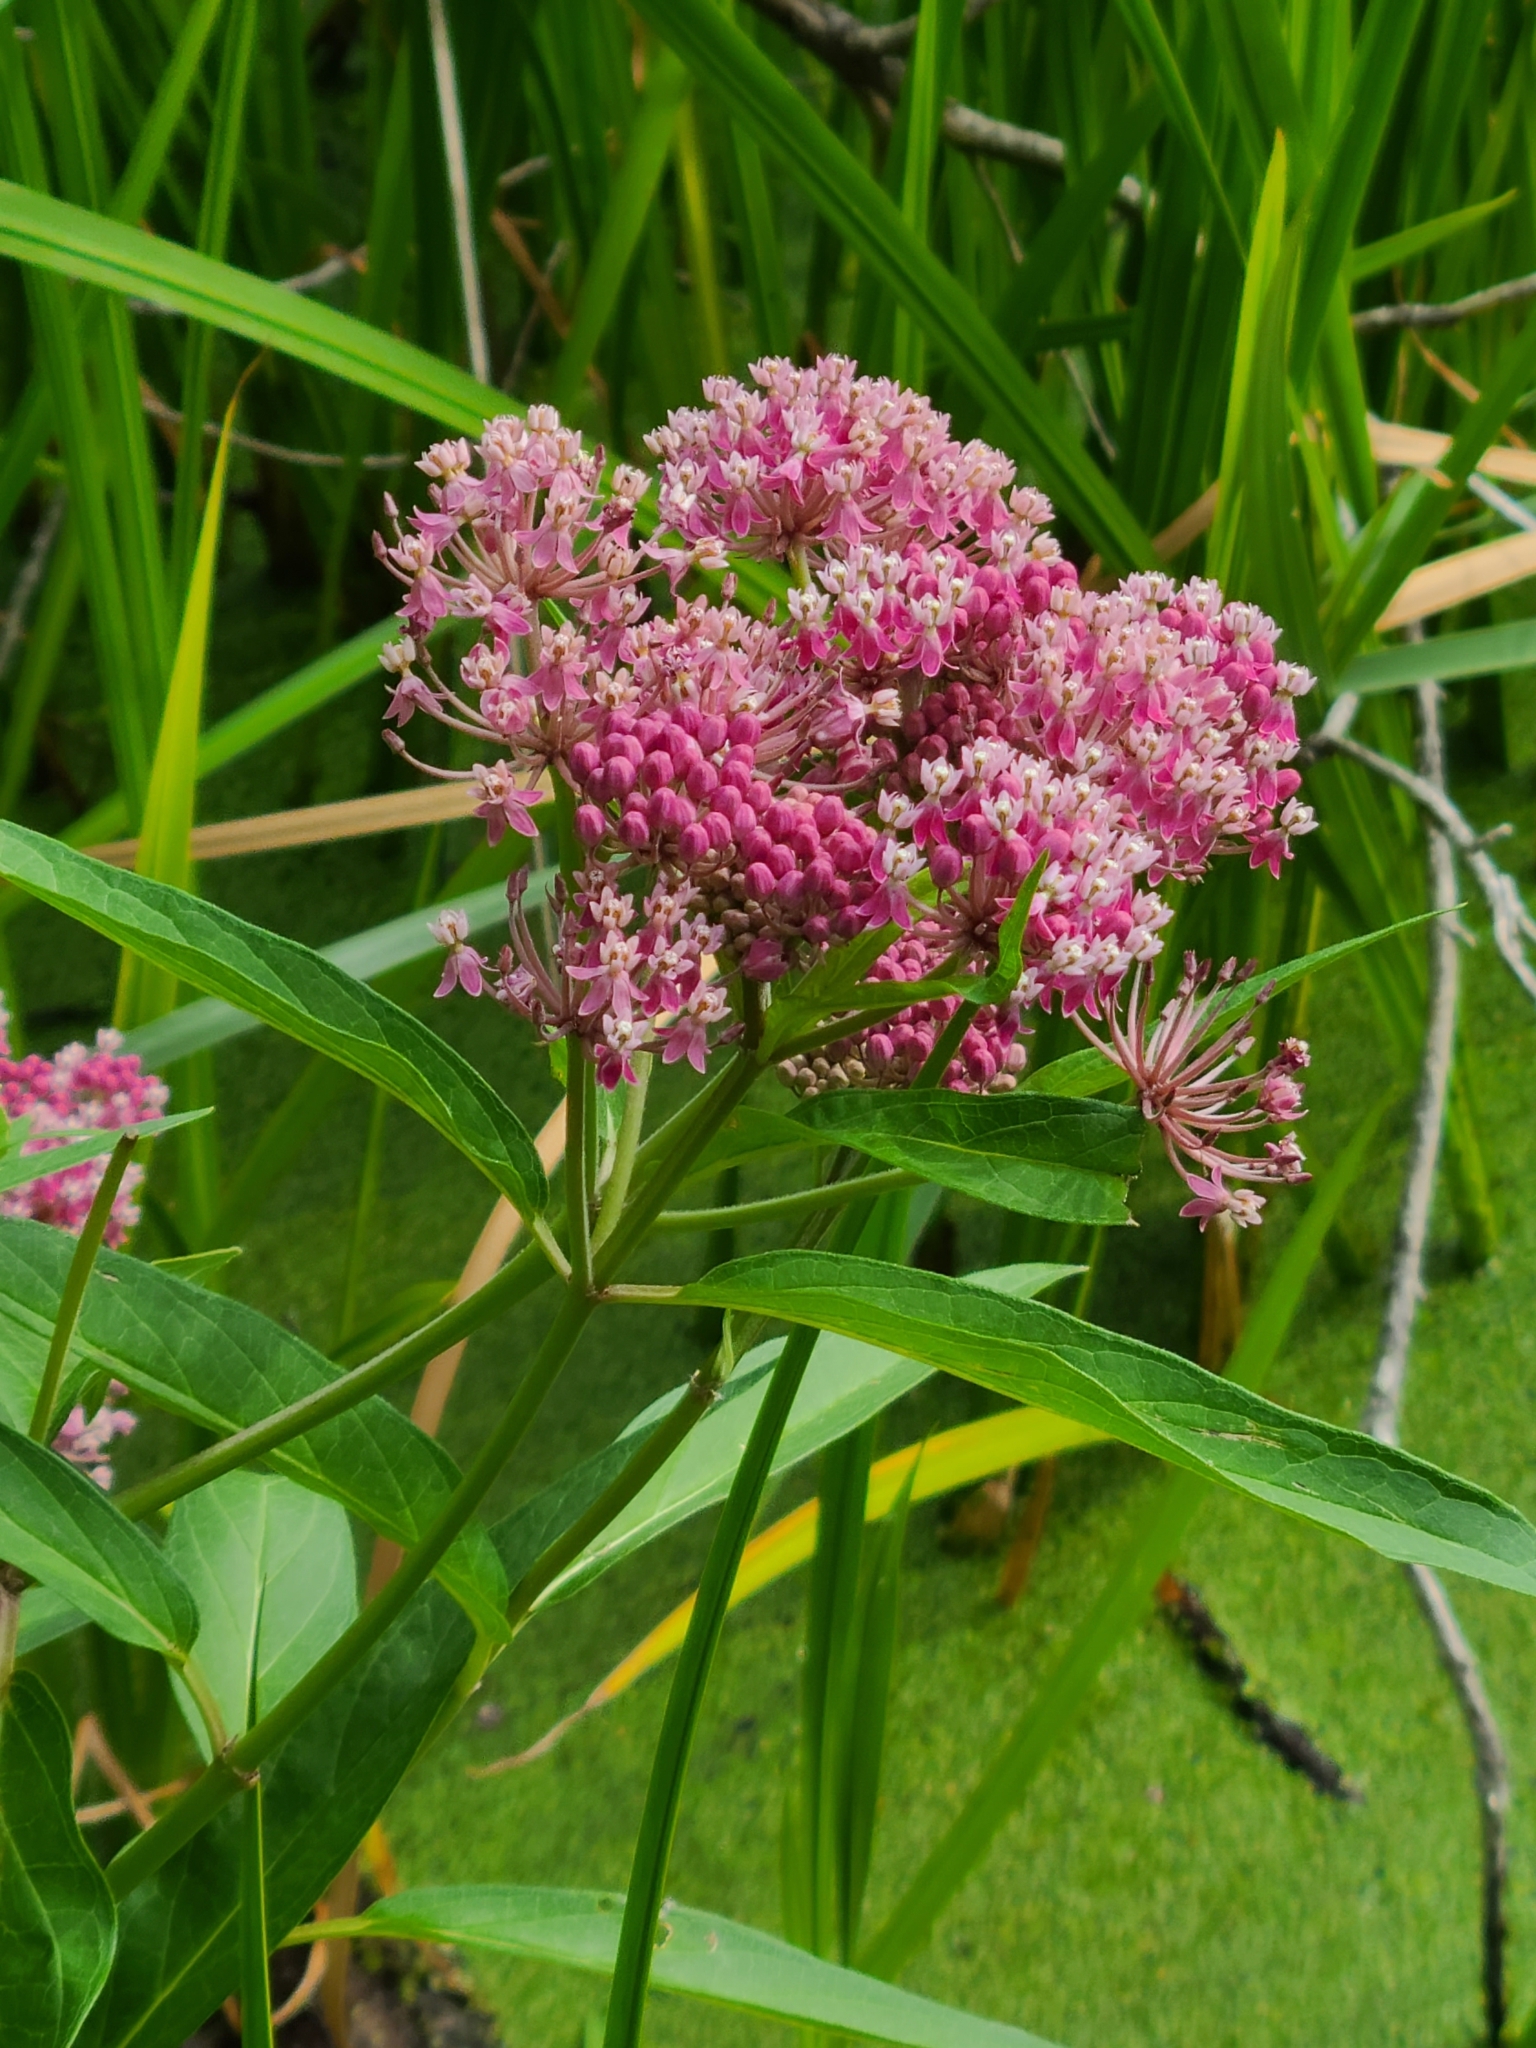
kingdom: Plantae
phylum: Tracheophyta
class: Magnoliopsida
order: Gentianales
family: Apocynaceae
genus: Asclepias
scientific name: Asclepias incarnata
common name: Swamp milkweed
